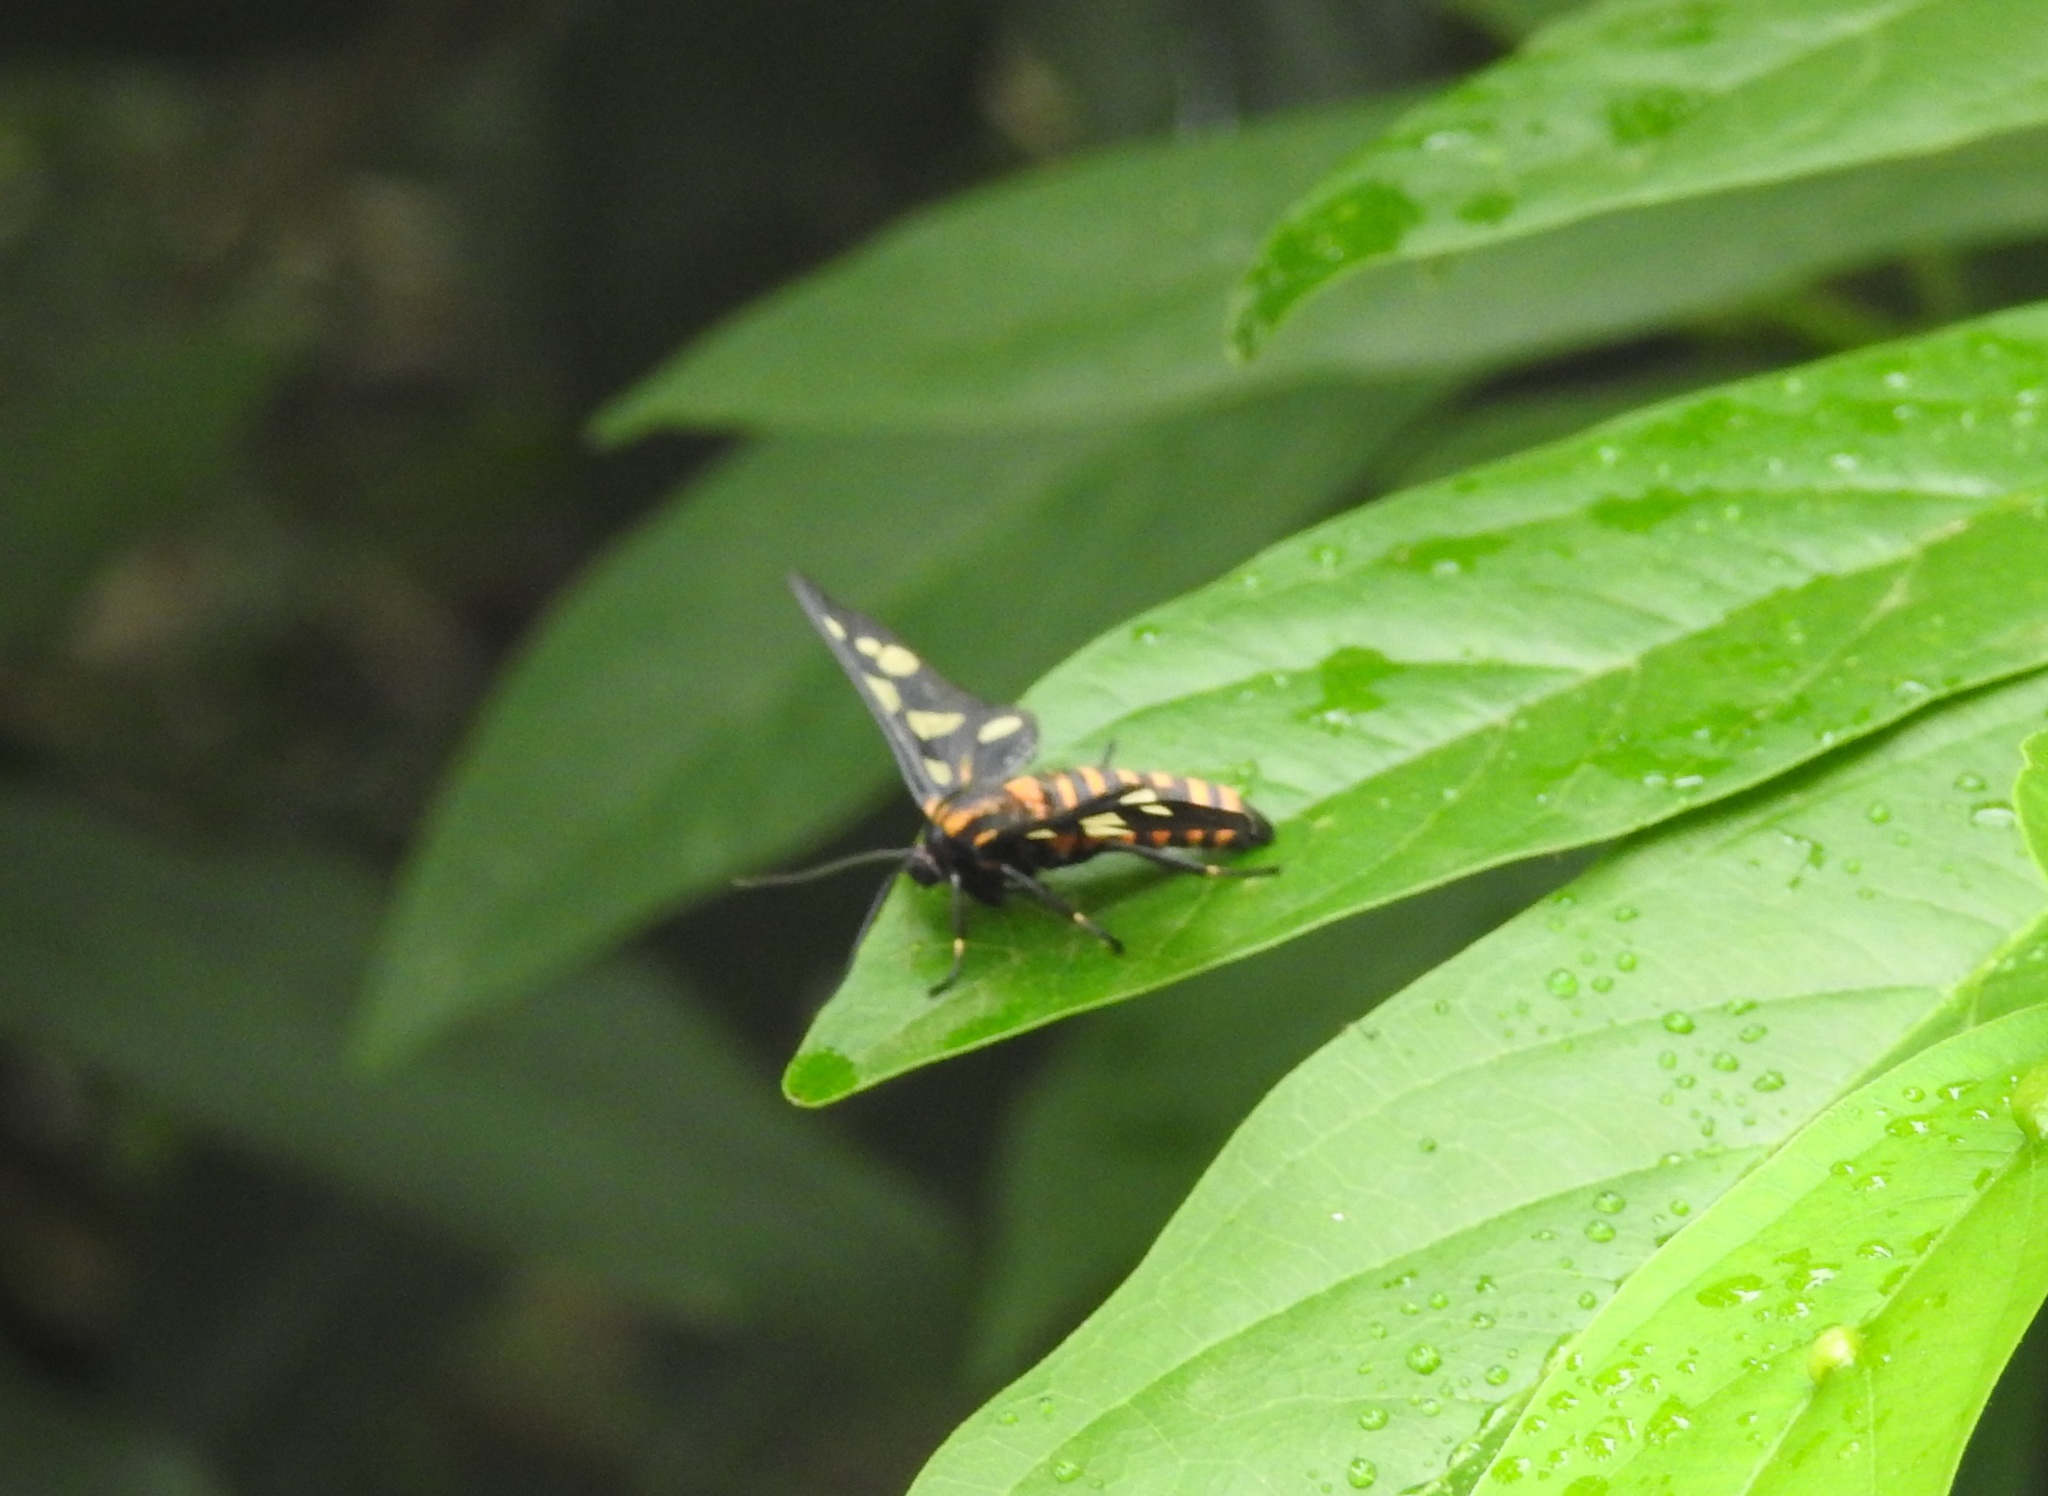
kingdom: Animalia
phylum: Arthropoda
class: Insecta
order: Lepidoptera
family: Erebidae
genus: Amata
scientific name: Amata passalis
